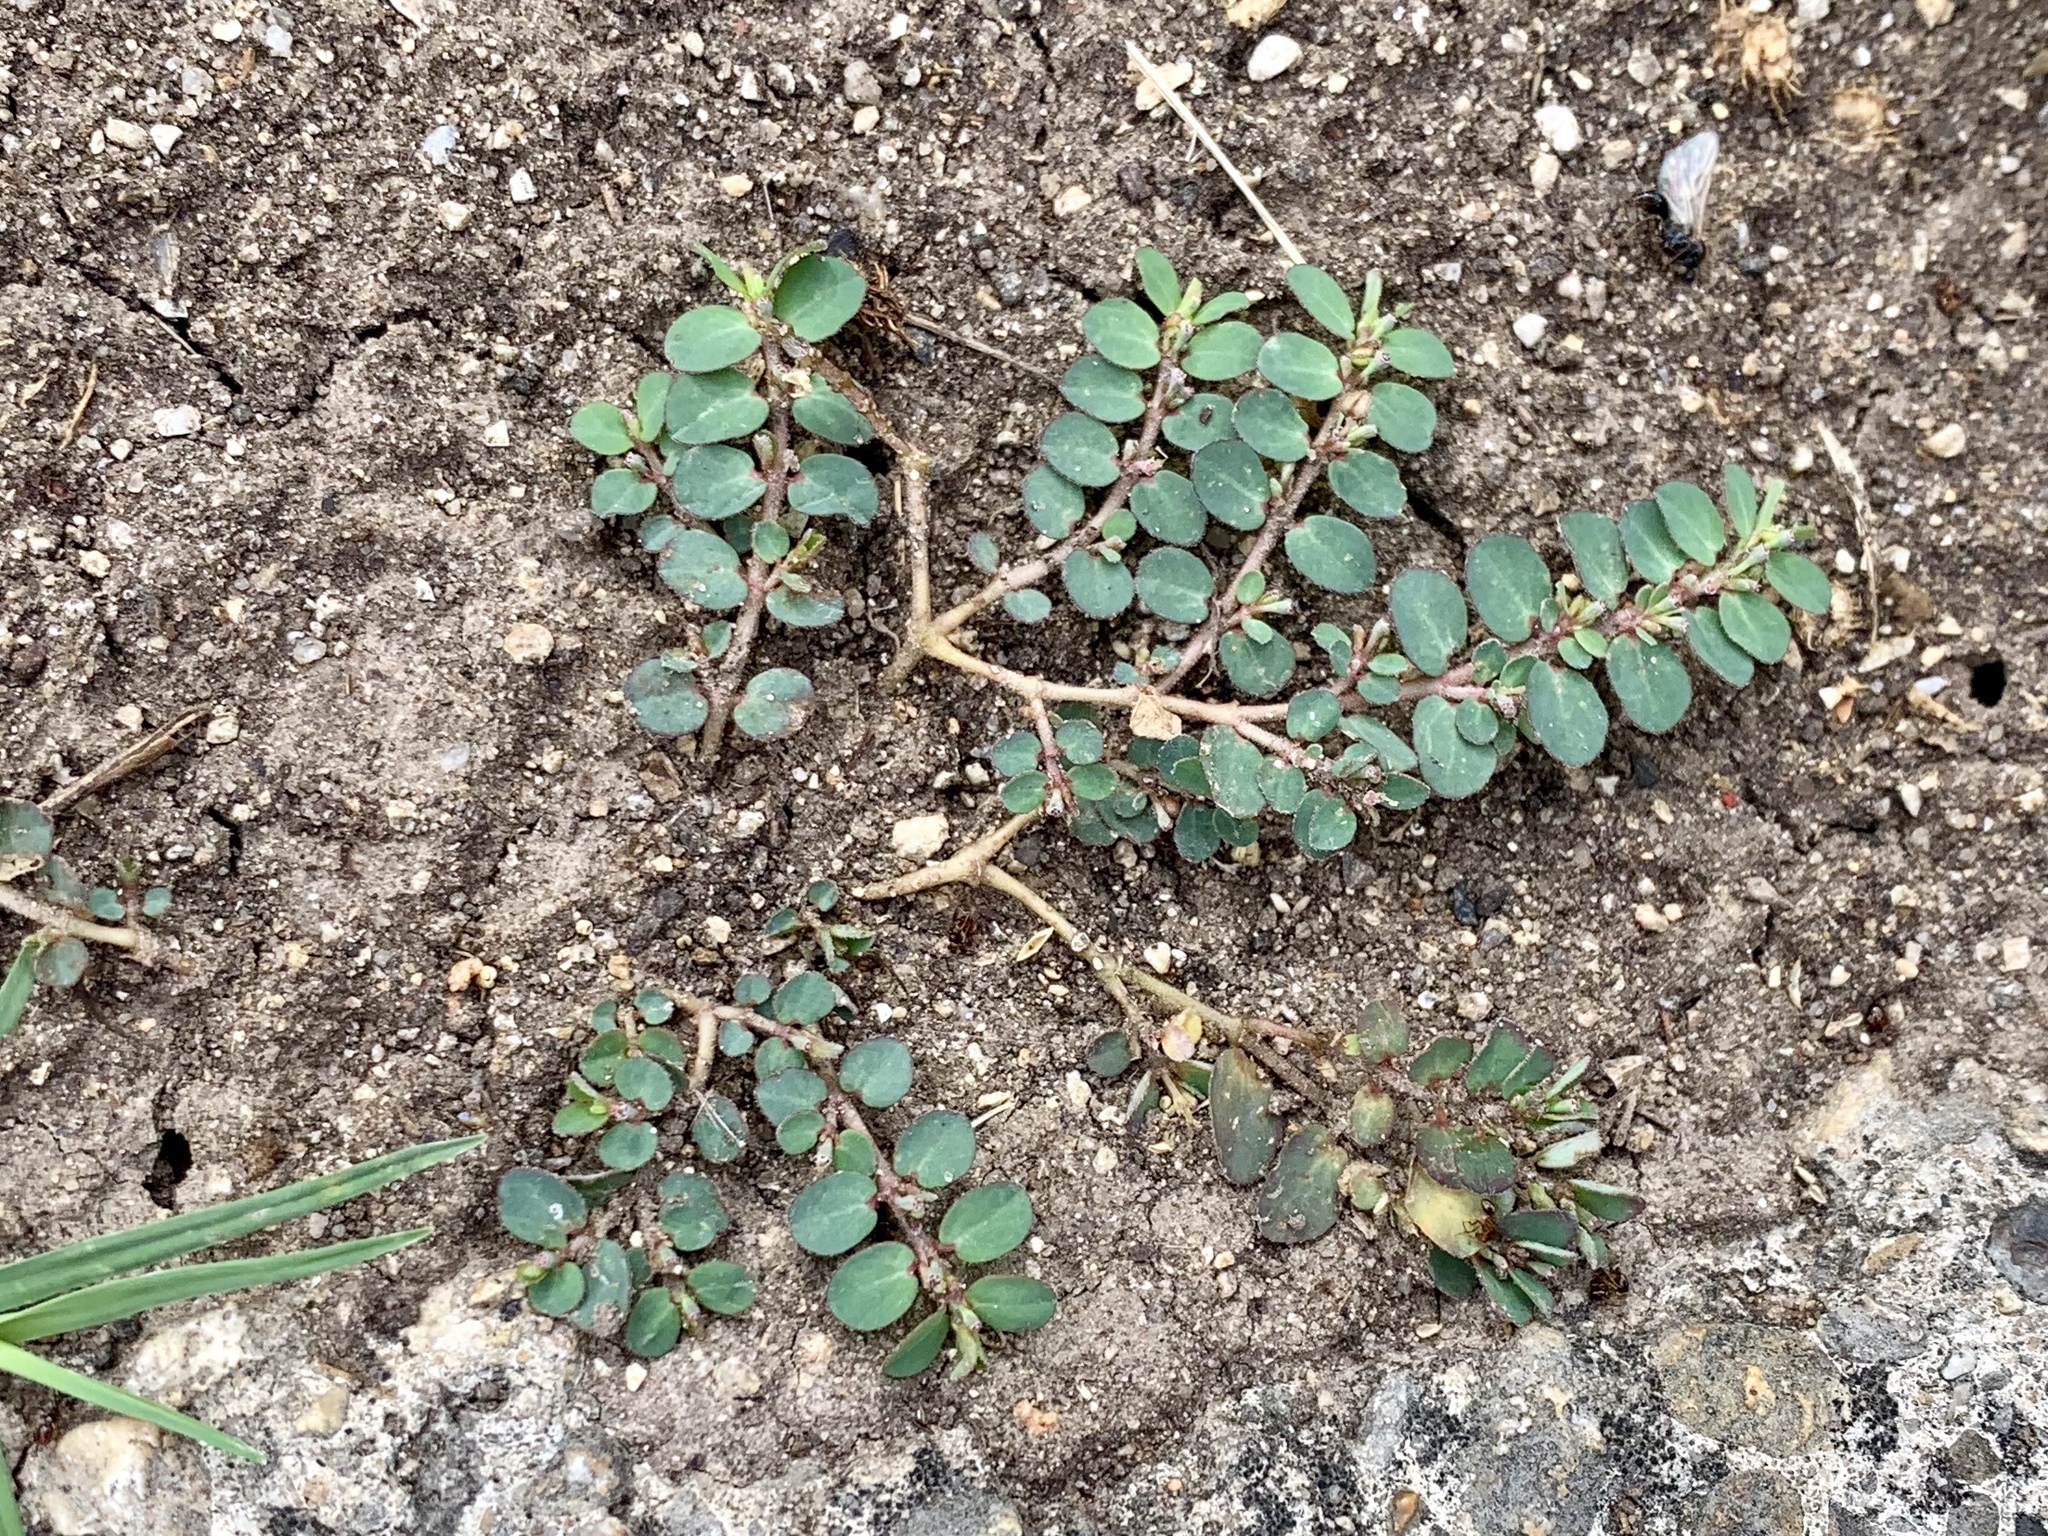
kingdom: Plantae
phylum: Tracheophyta
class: Magnoliopsida
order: Malpighiales
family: Euphorbiaceae
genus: Euphorbia
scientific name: Euphorbia prostrata
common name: Prostrate sandmat
